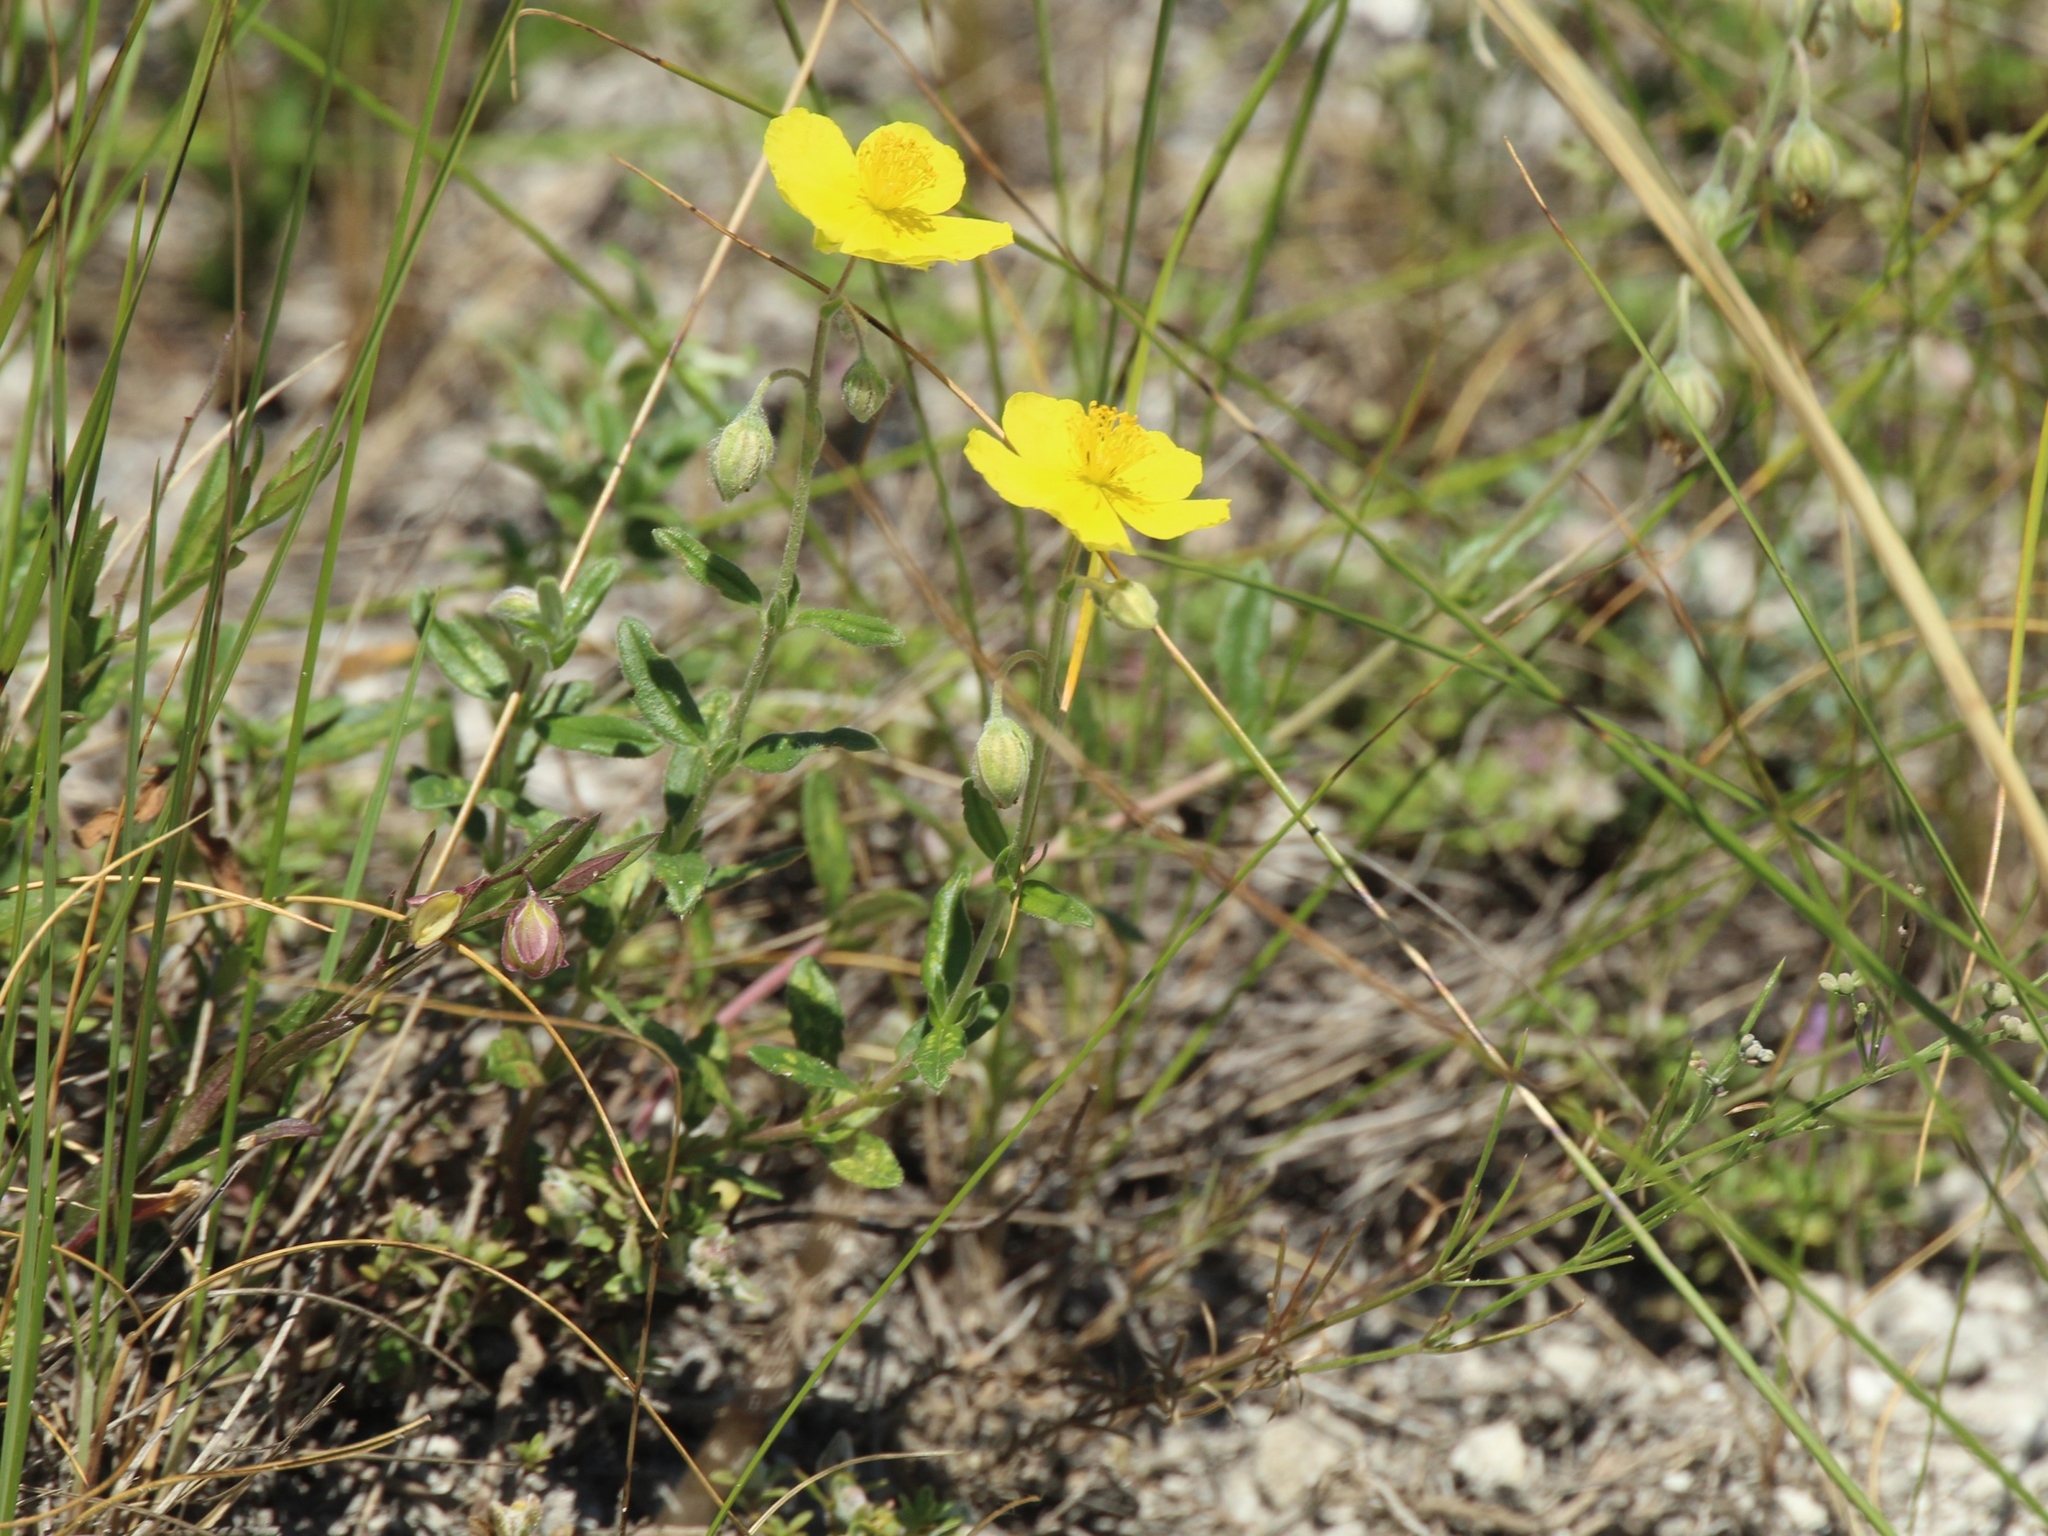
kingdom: Plantae
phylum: Tracheophyta
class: Magnoliopsida
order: Malvales
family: Cistaceae
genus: Helianthemum
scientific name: Helianthemum nummularium
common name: Common rock-rose
